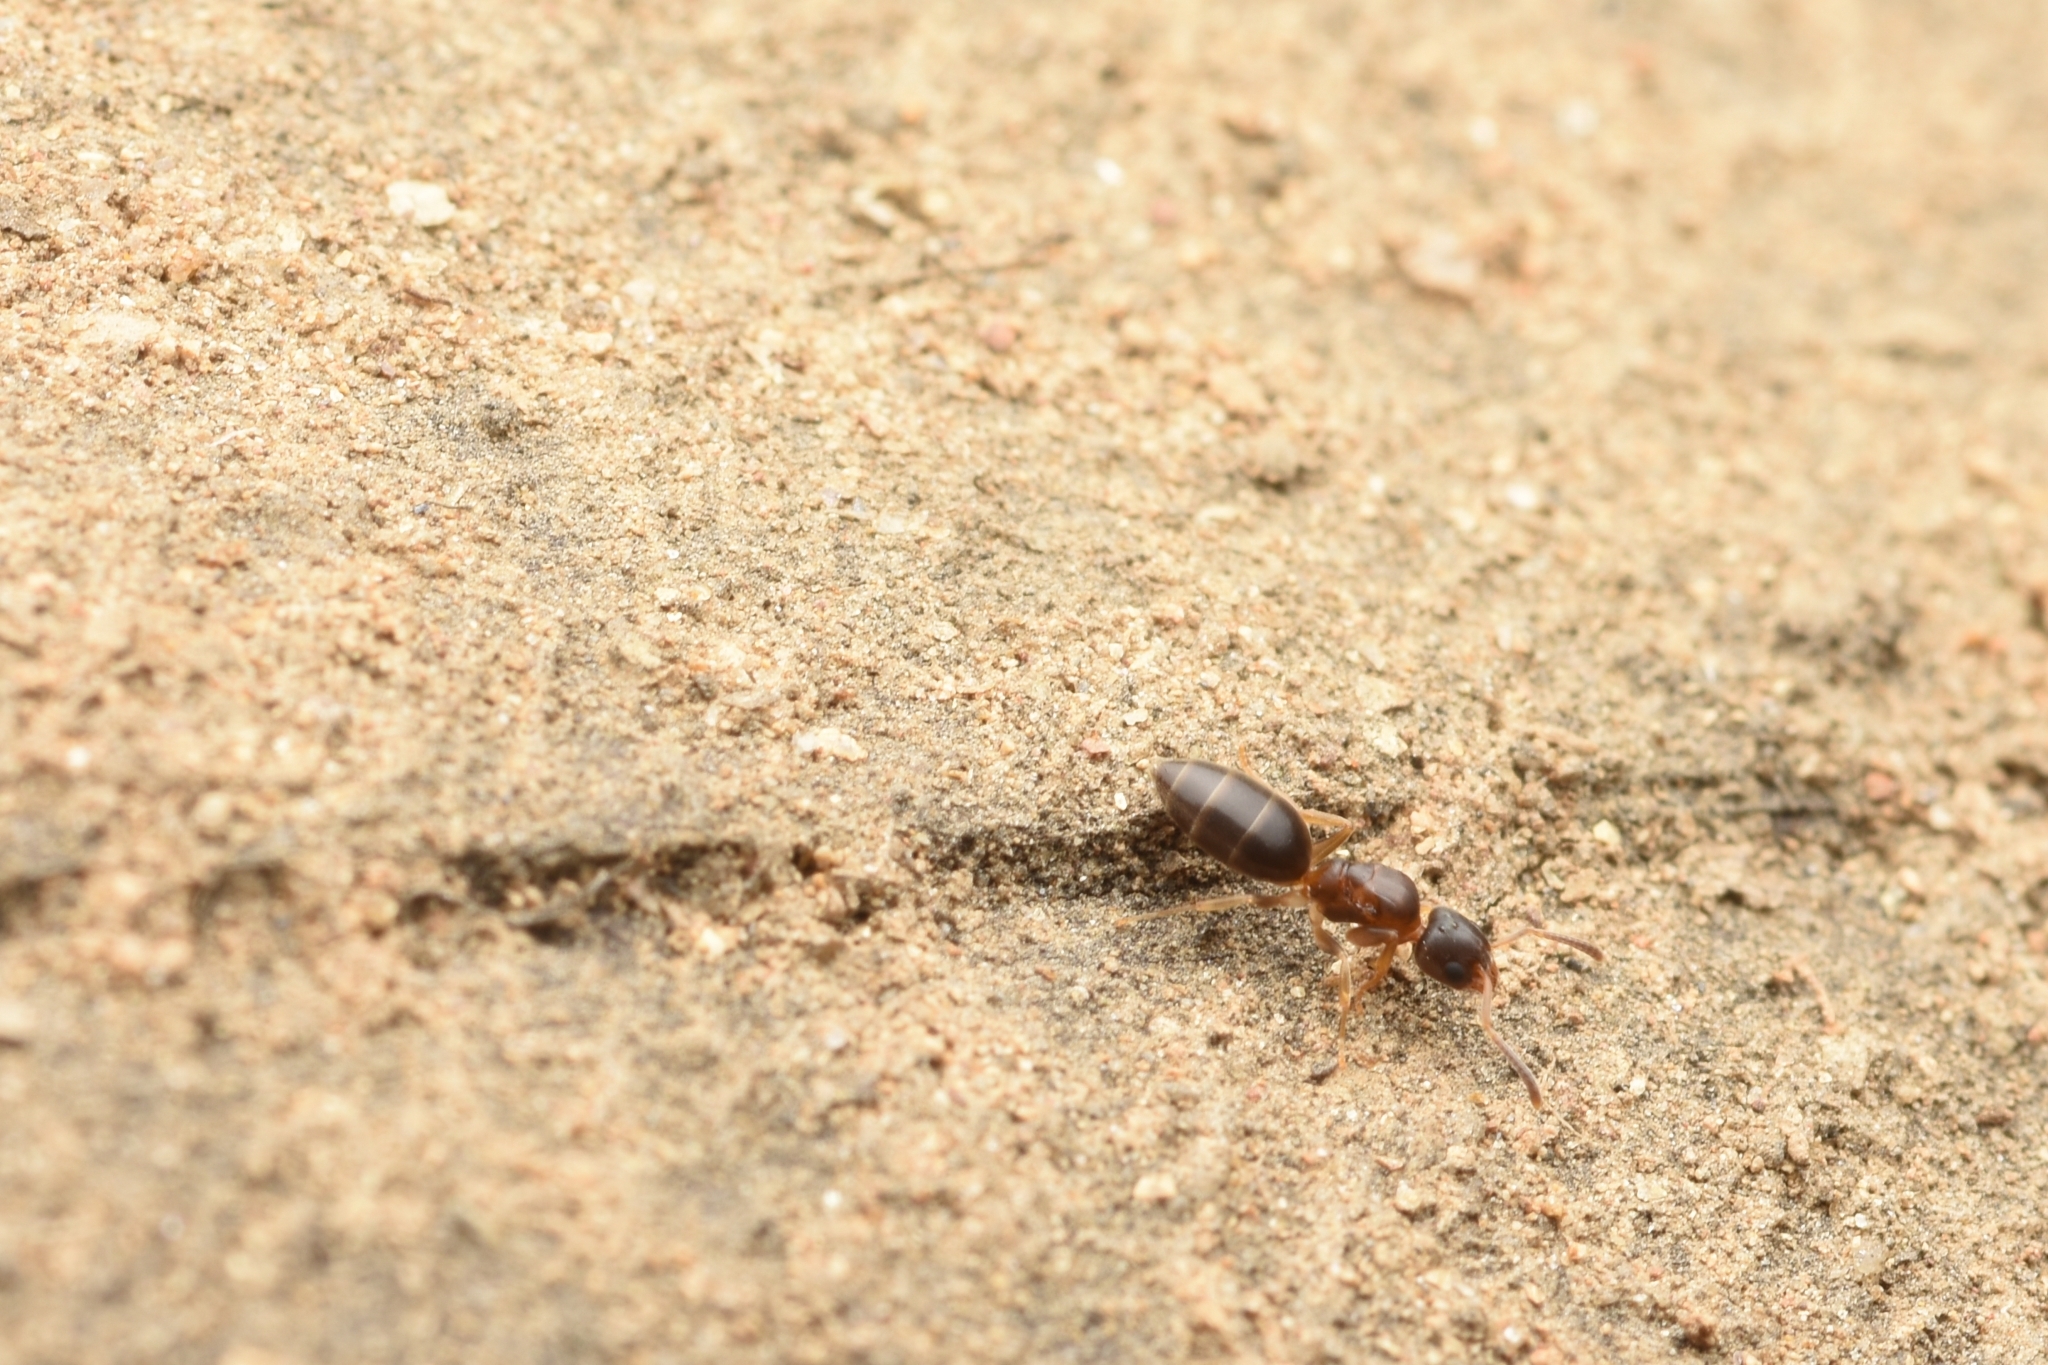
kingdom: Animalia
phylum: Arthropoda
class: Insecta
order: Hymenoptera
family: Formicidae
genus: Technomyrmex
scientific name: Technomyrmex gibbosus
